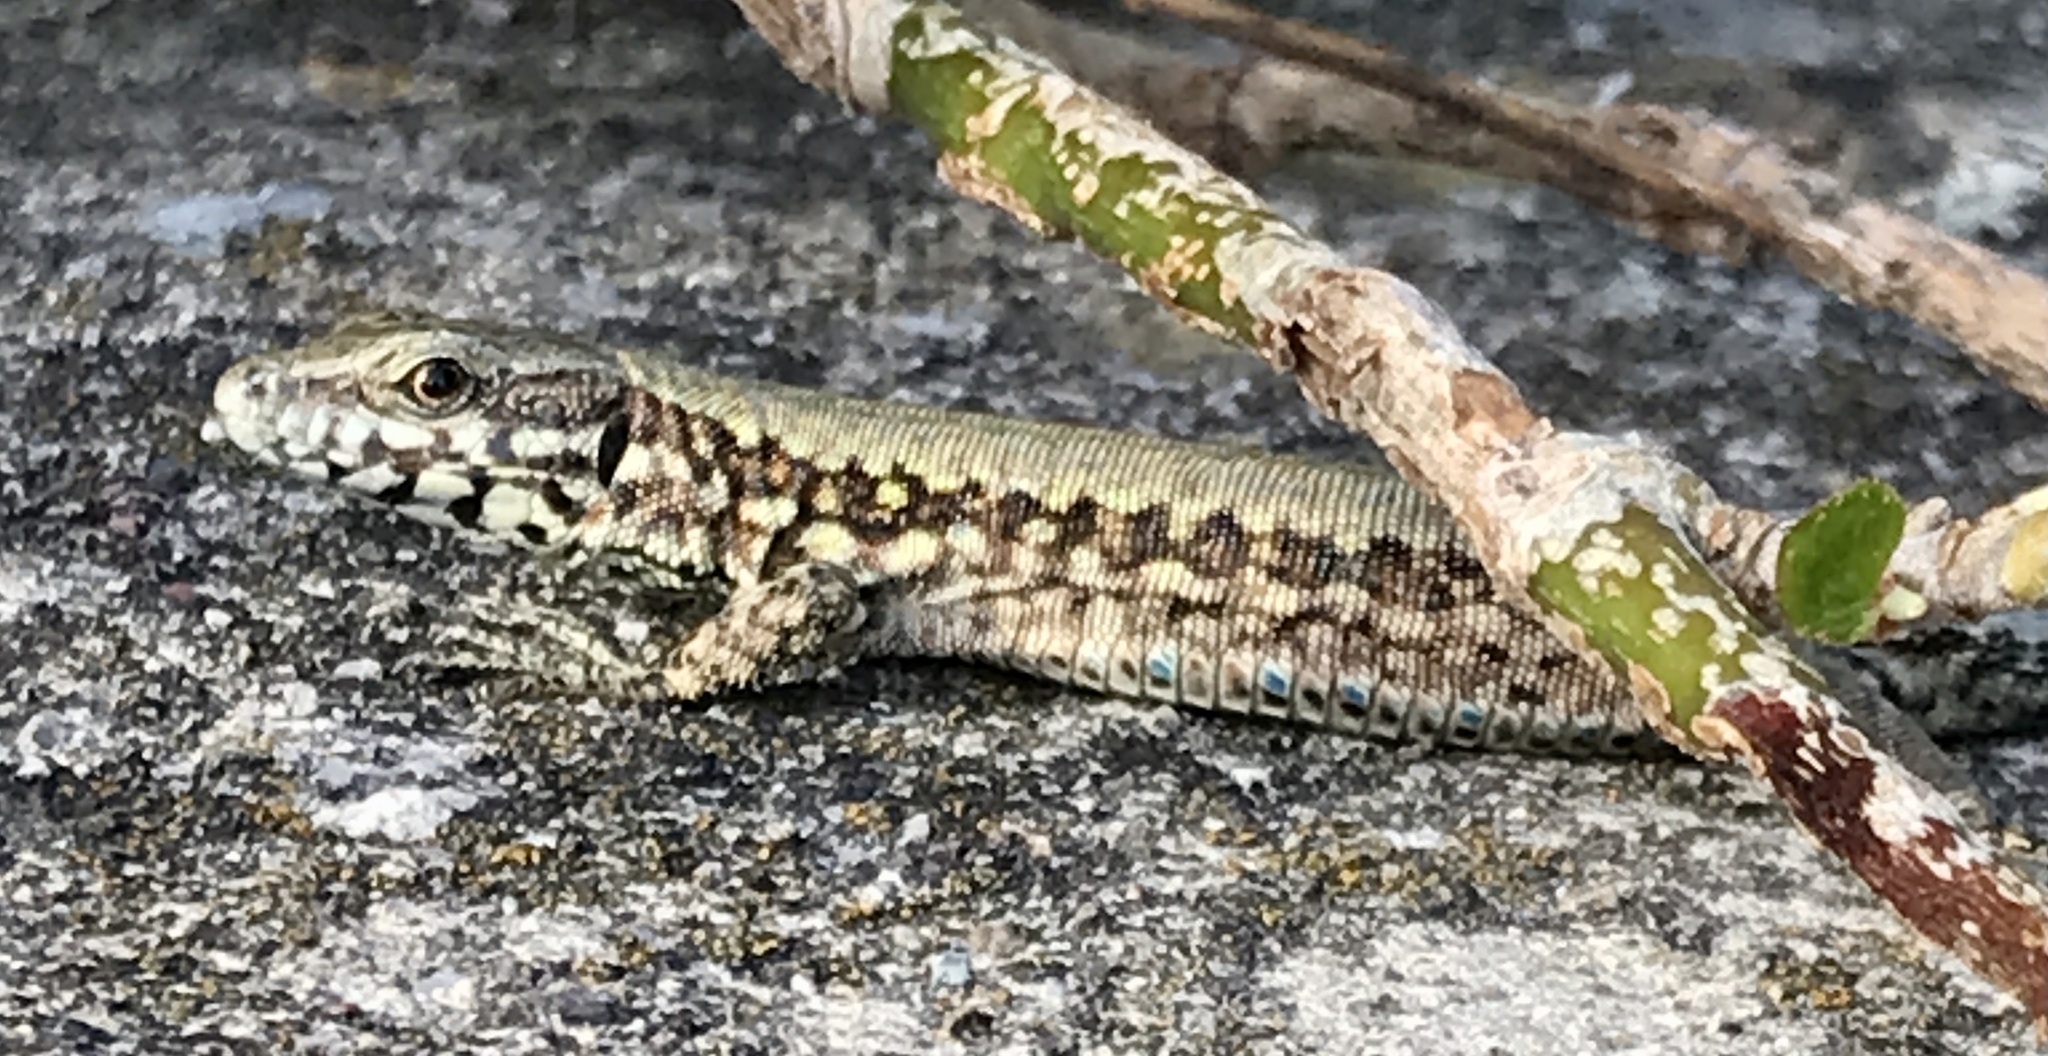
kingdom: Animalia
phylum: Chordata
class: Squamata
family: Lacertidae
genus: Podarcis
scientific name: Podarcis muralis
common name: Common wall lizard
